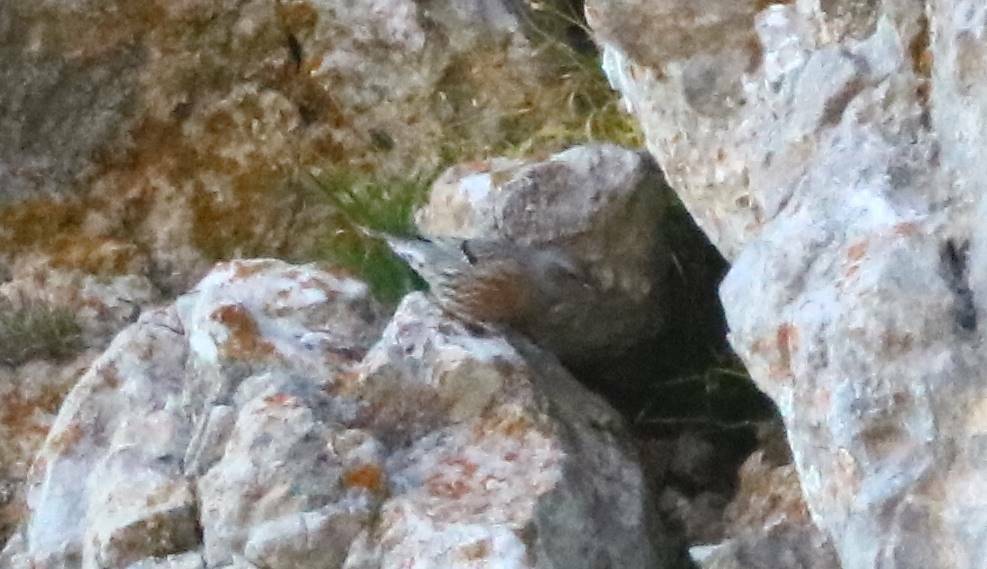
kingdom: Animalia
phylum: Chordata
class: Aves
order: Passeriformes
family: Prunellidae
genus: Prunella
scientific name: Prunella collaris
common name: Alpine accentor
